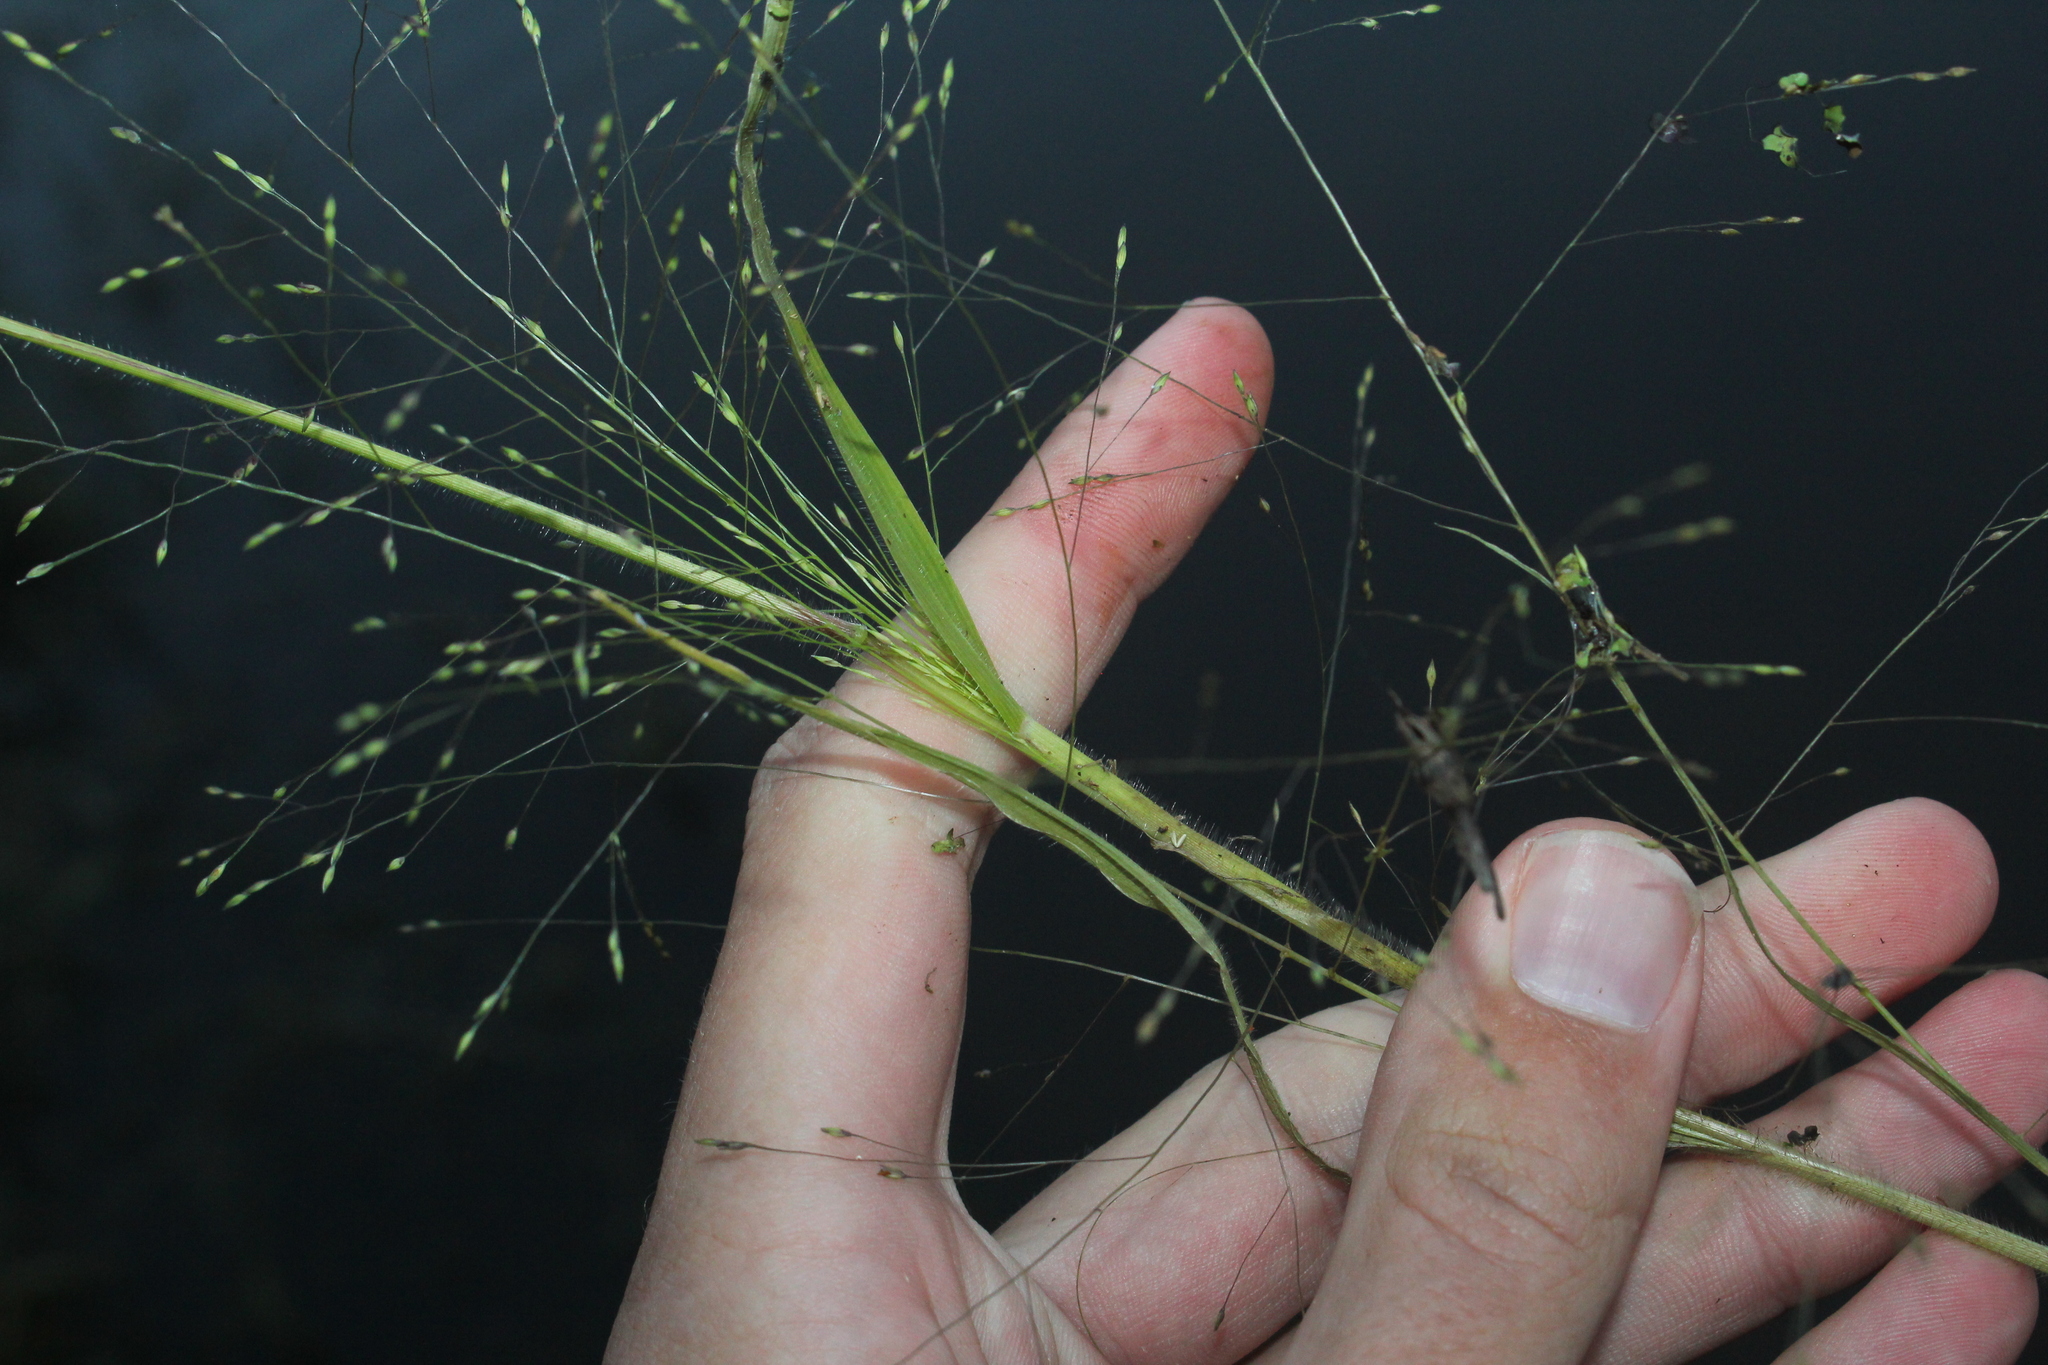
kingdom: Plantae
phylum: Tracheophyta
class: Liliopsida
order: Poales
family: Poaceae
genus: Panicum
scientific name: Panicum capillare
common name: Witch-grass
